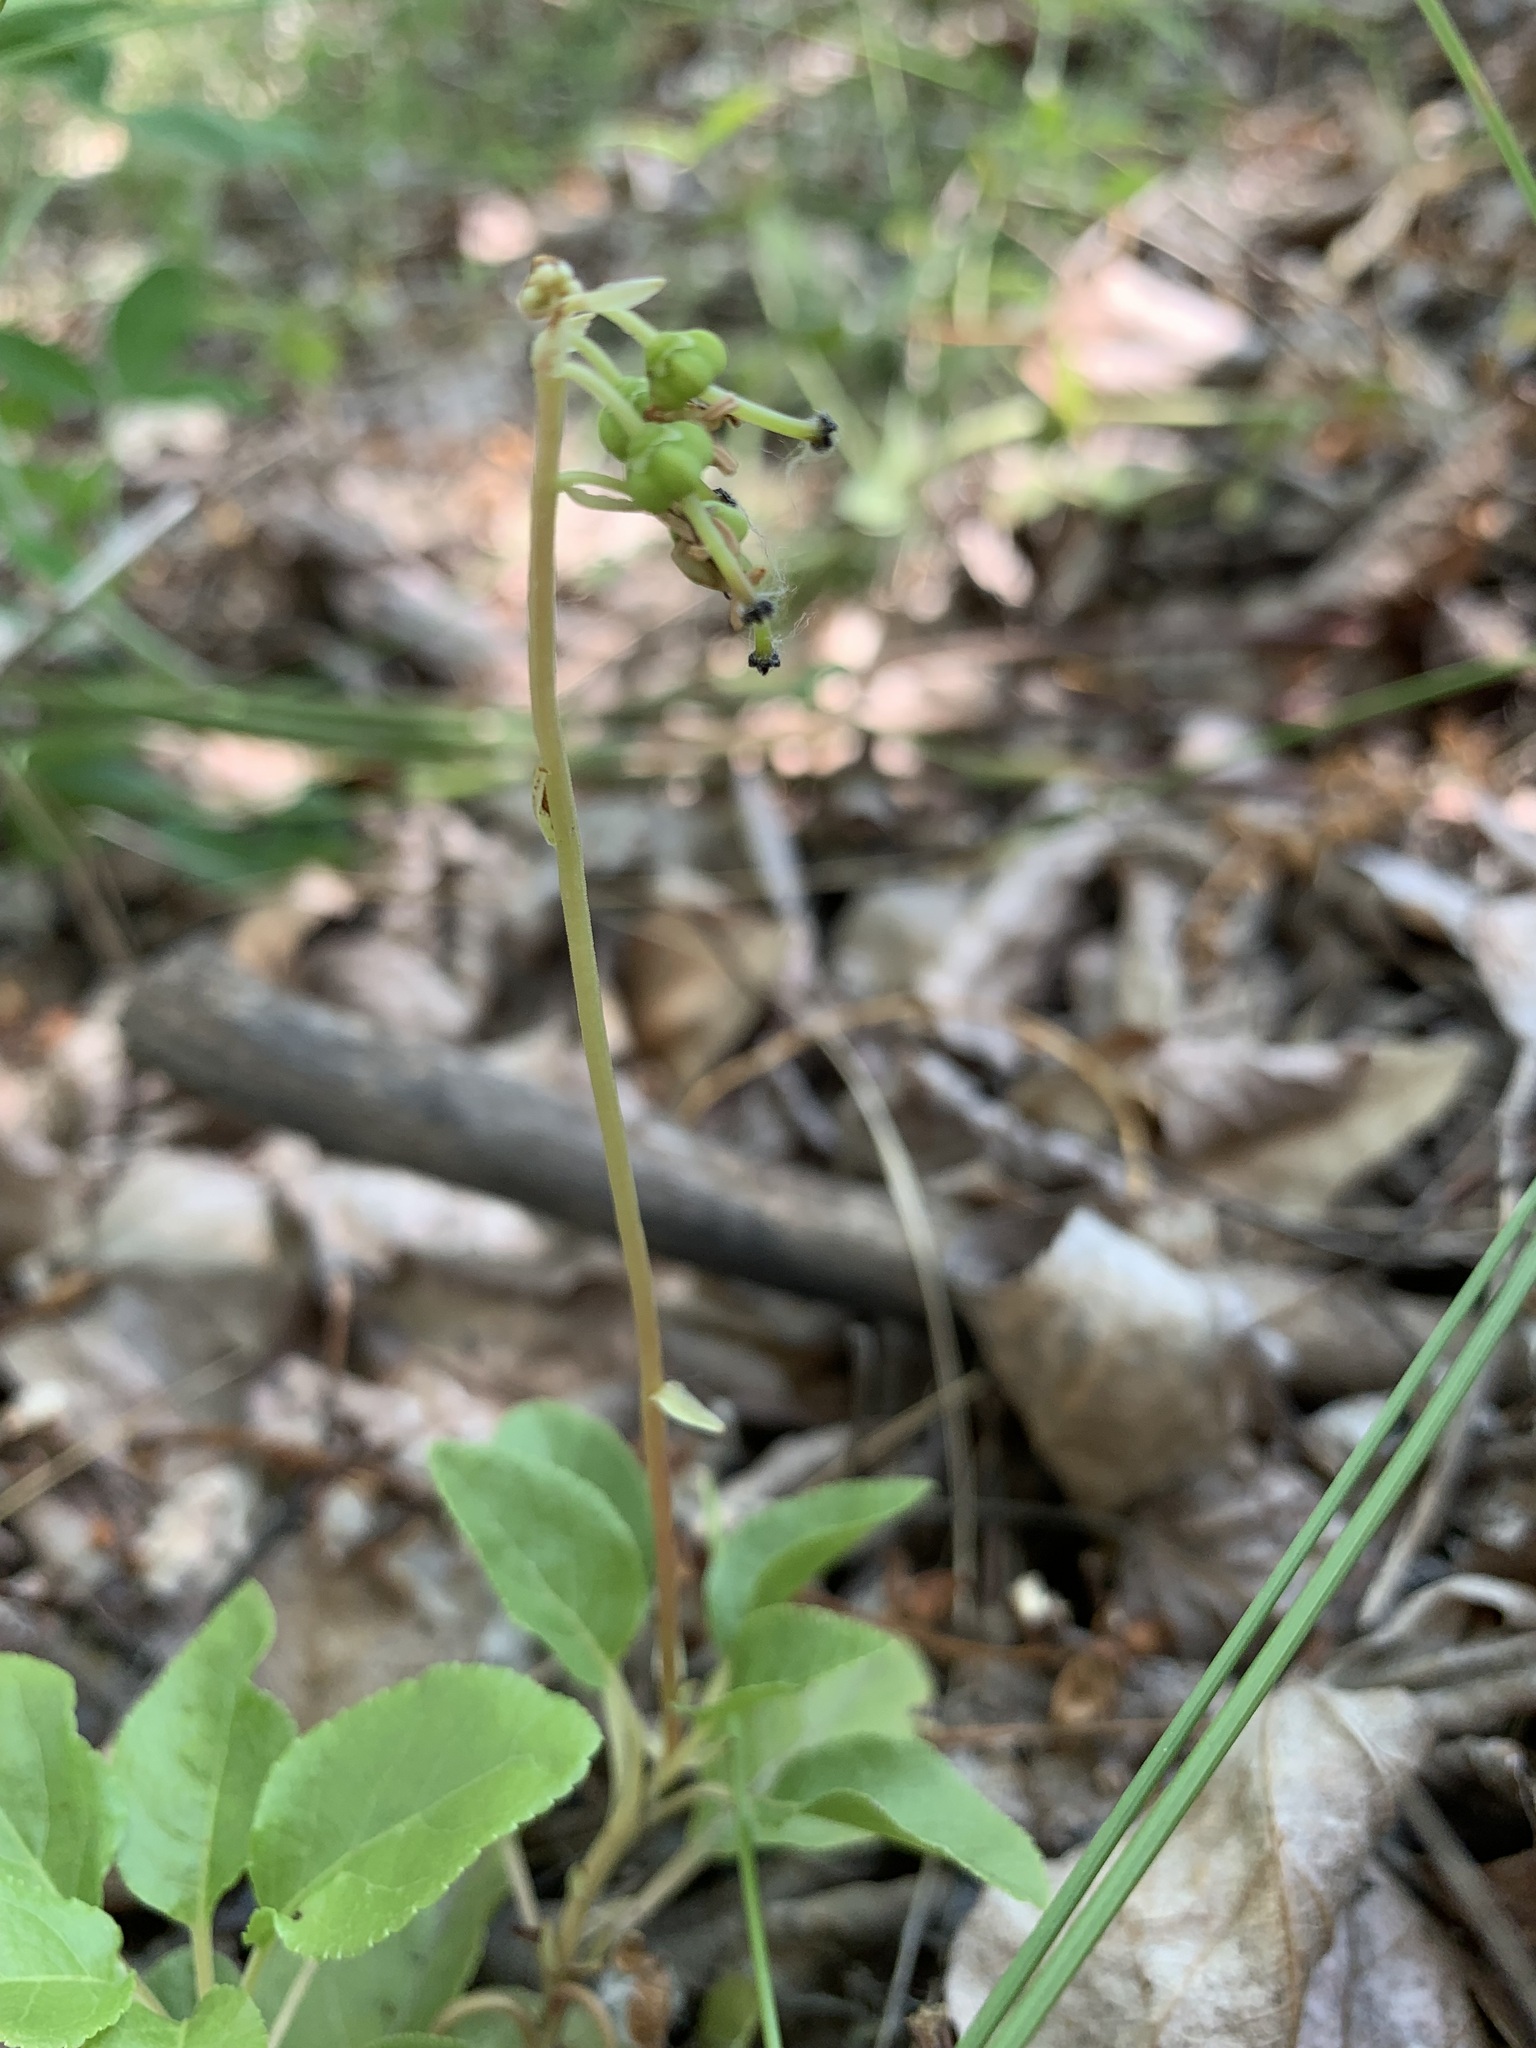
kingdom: Plantae
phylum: Tracheophyta
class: Magnoliopsida
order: Ericales
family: Ericaceae
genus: Orthilia
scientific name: Orthilia secunda
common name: One-sided orthilia
